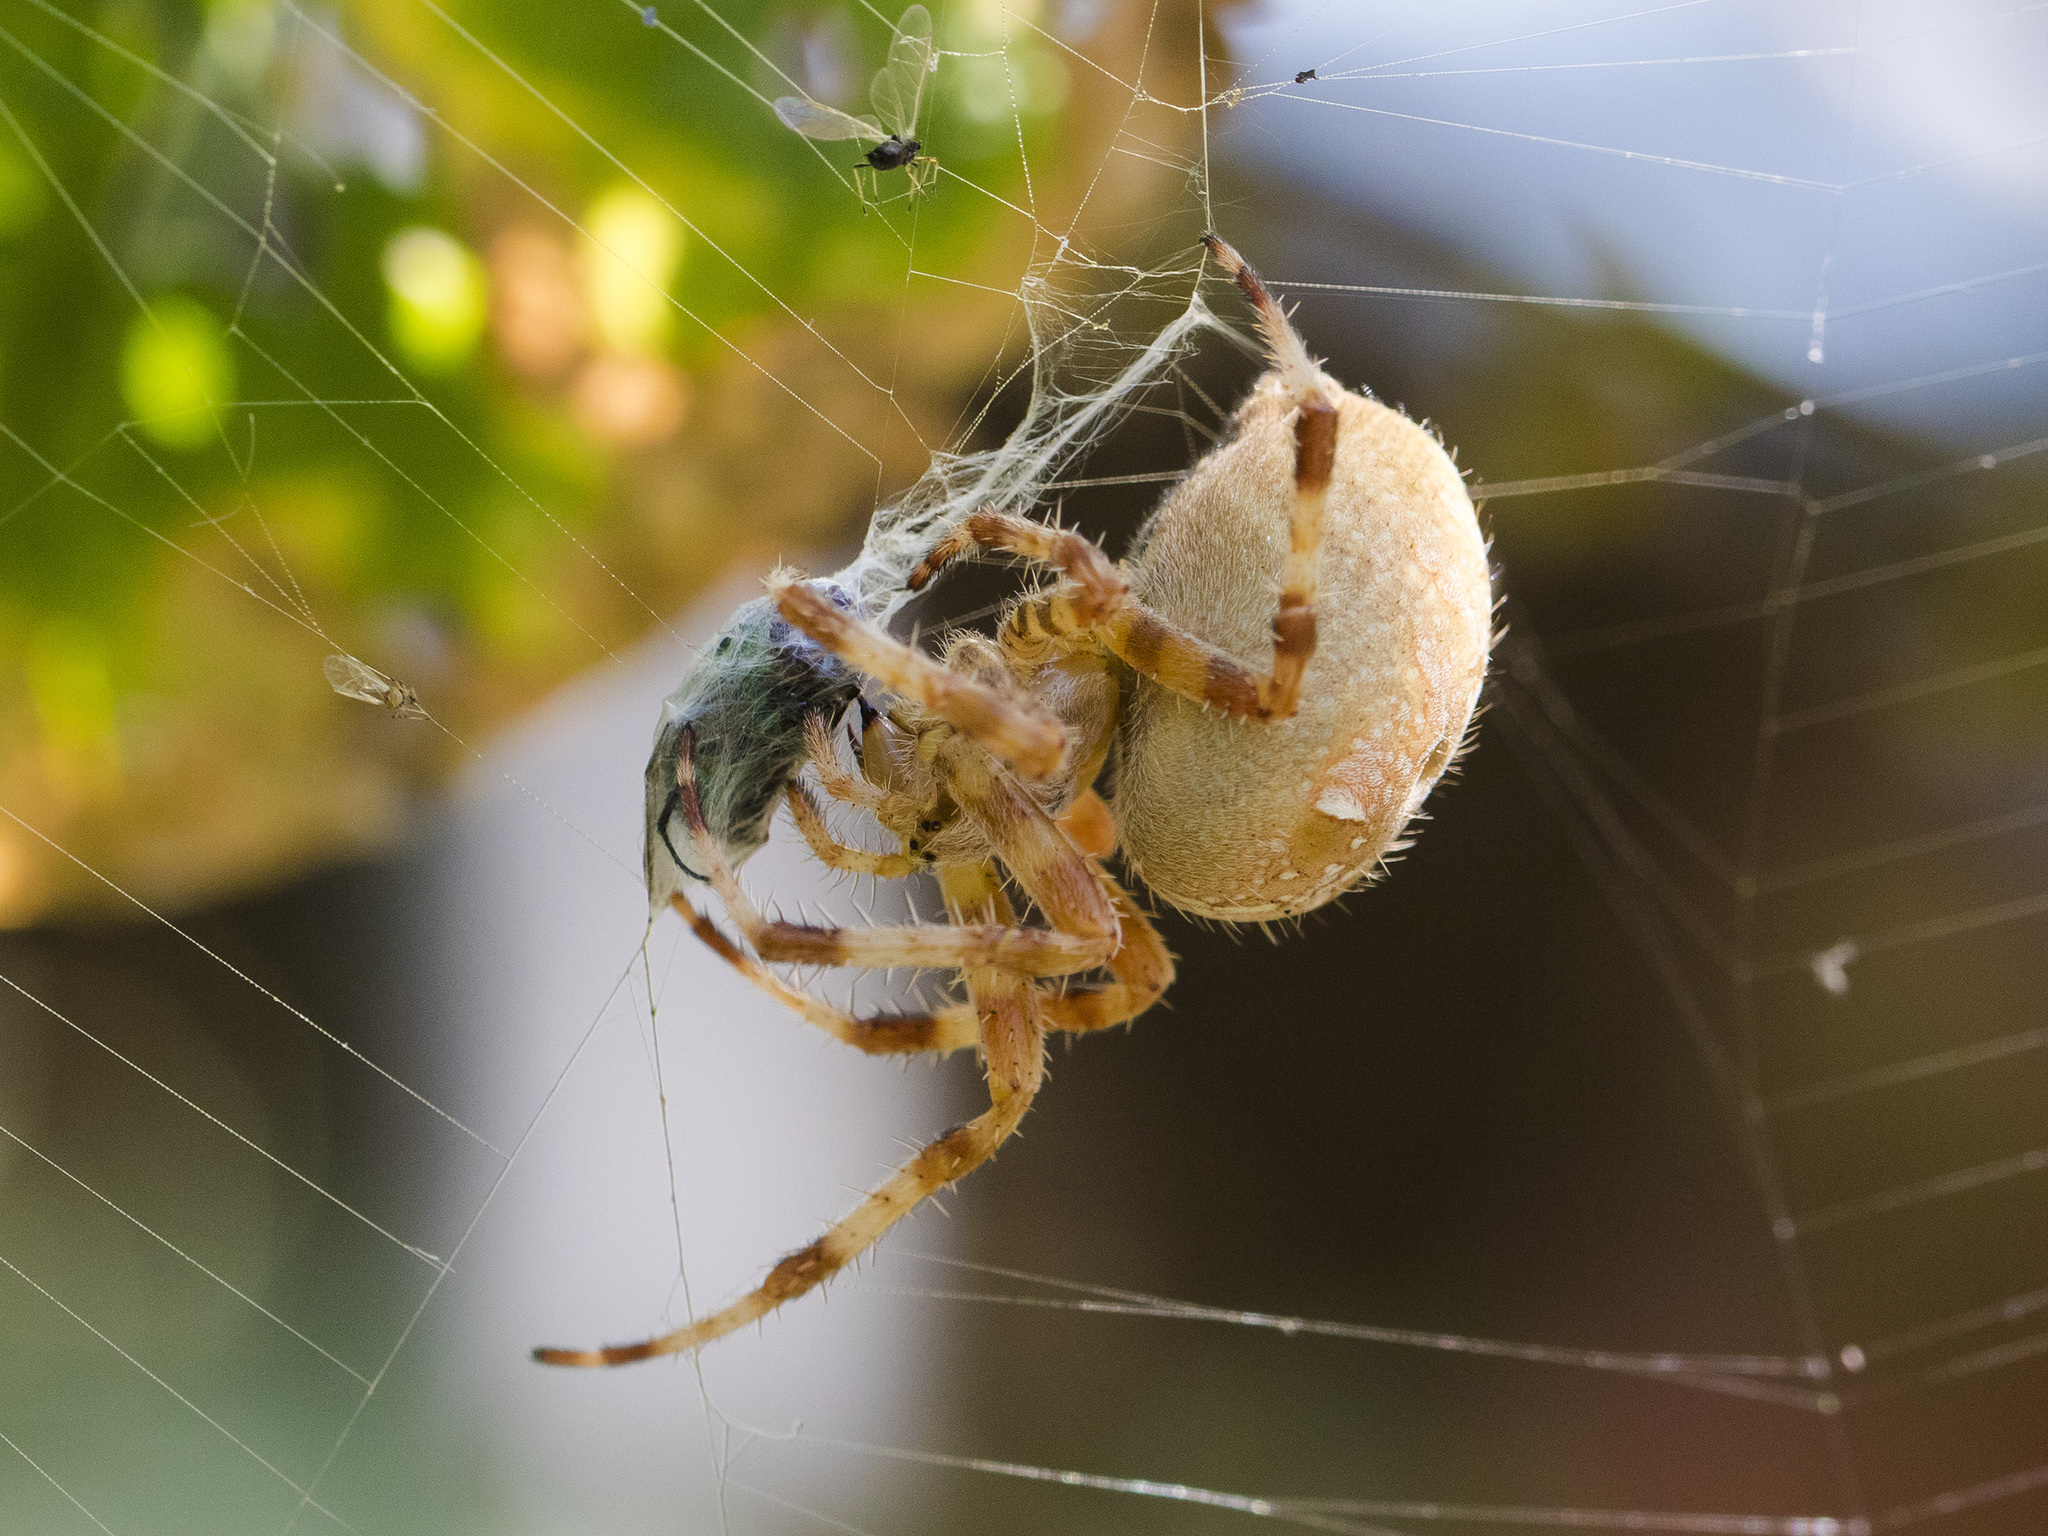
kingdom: Animalia
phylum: Arthropoda
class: Arachnida
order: Araneae
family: Araneidae
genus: Araneus
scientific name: Araneus diadematus
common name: Cross orbweaver
